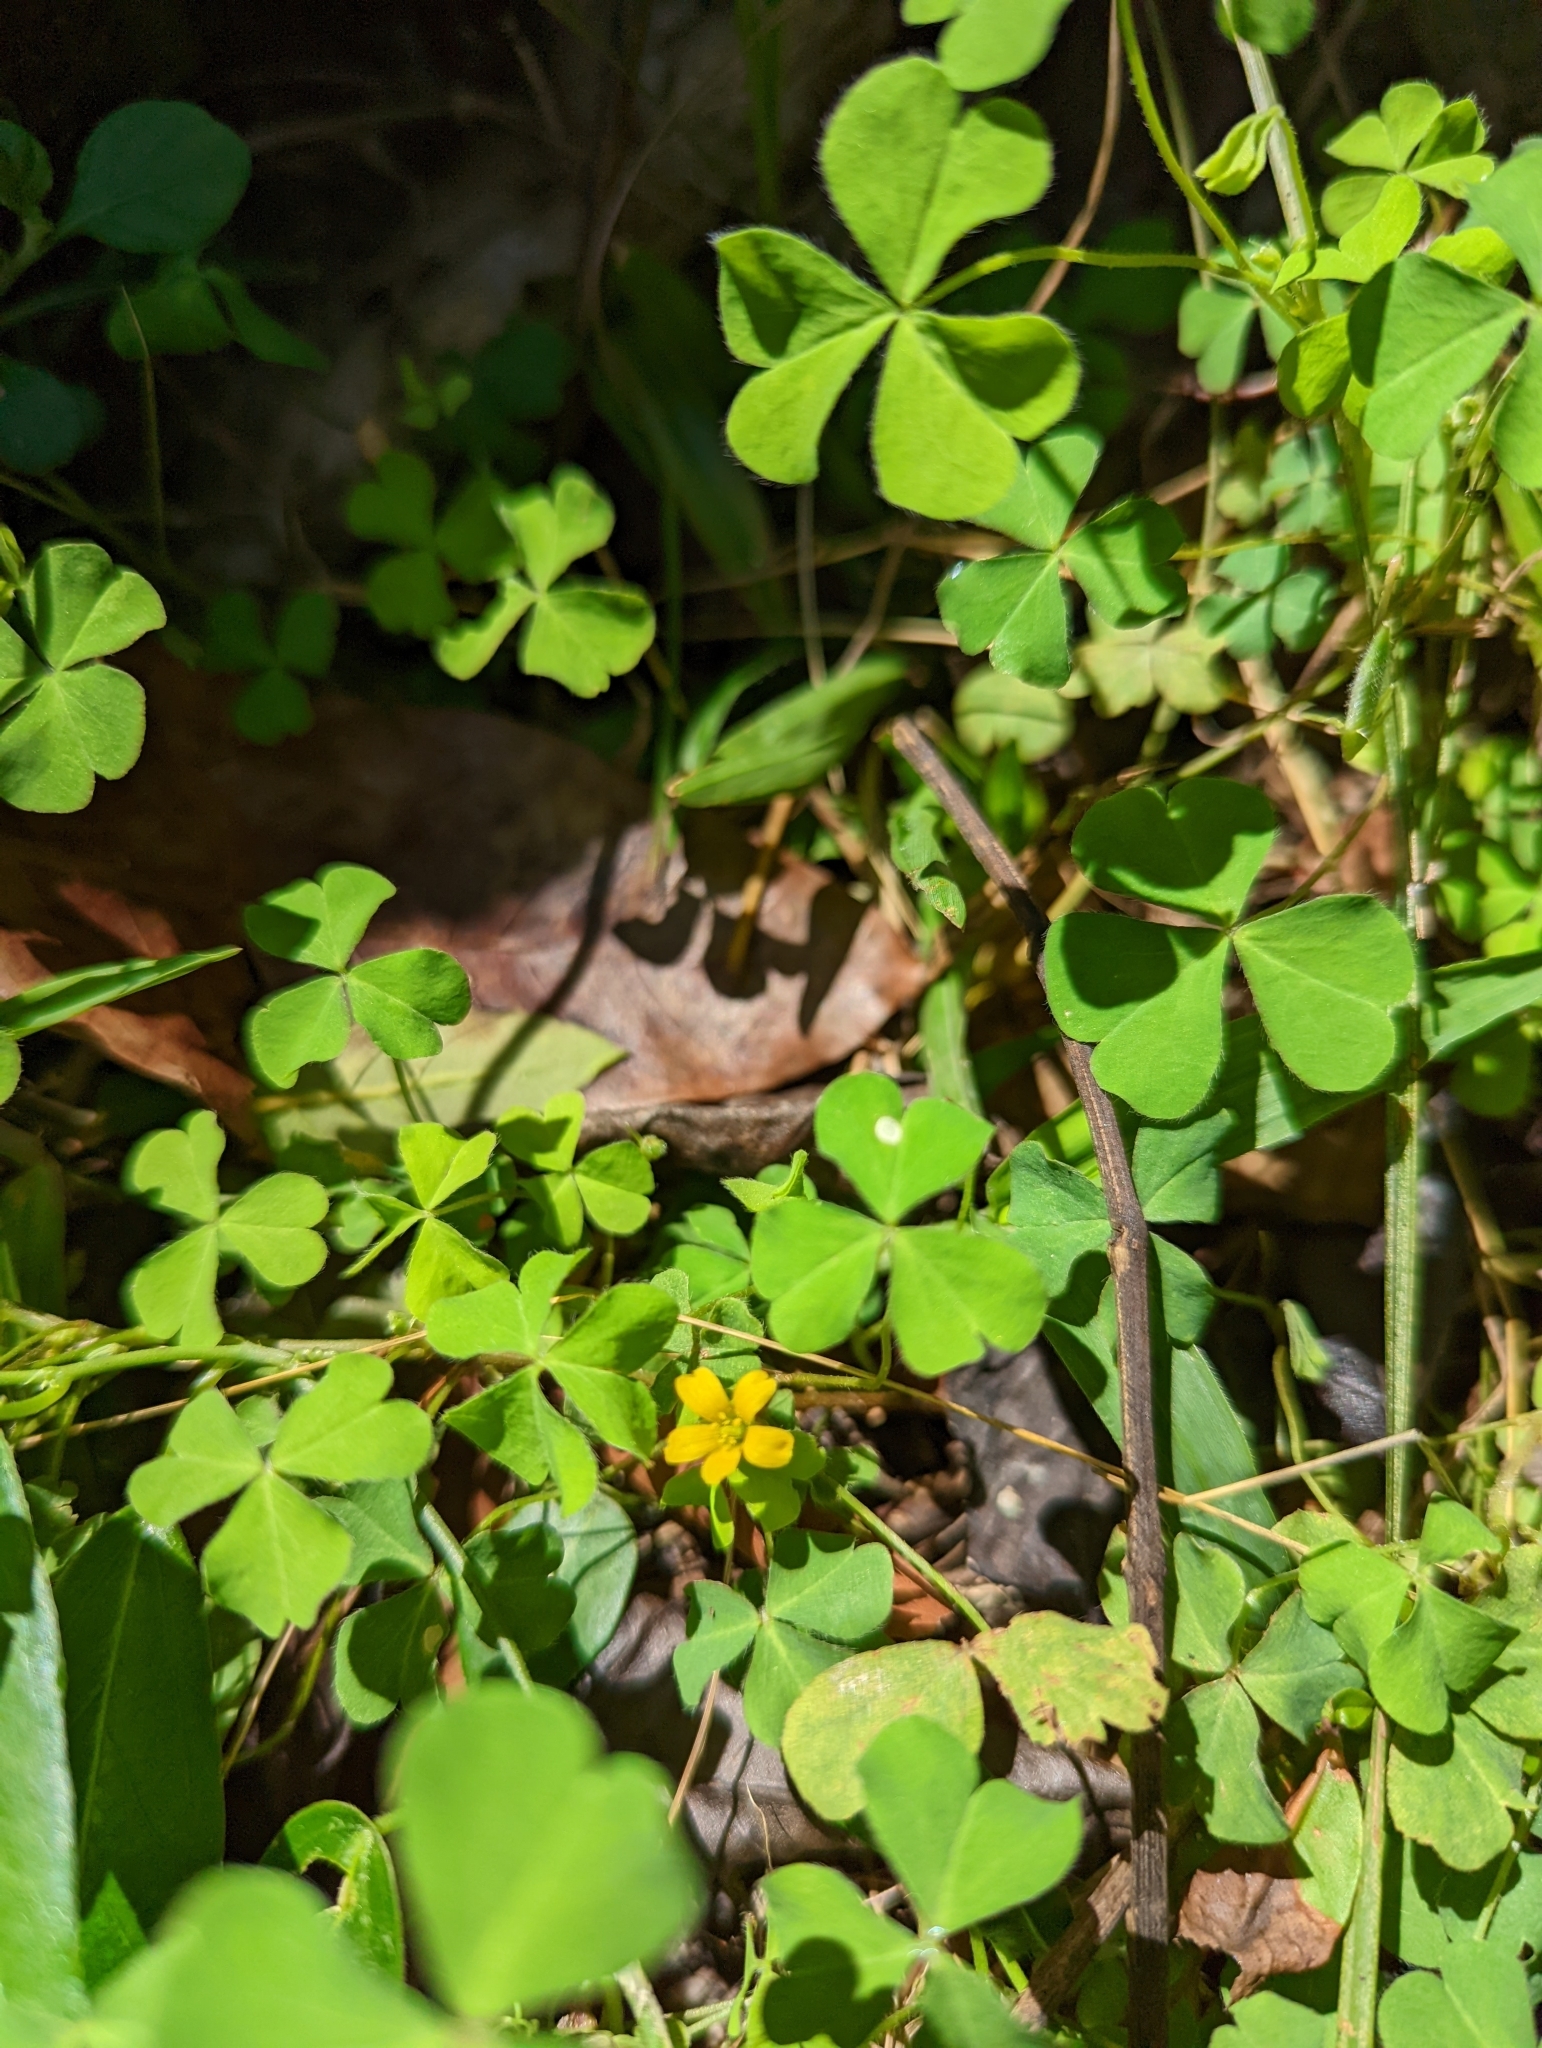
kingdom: Plantae
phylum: Tracheophyta
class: Magnoliopsida
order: Oxalidales
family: Oxalidaceae
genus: Oxalis
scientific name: Oxalis corniculata
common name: Procumbent yellow-sorrel
